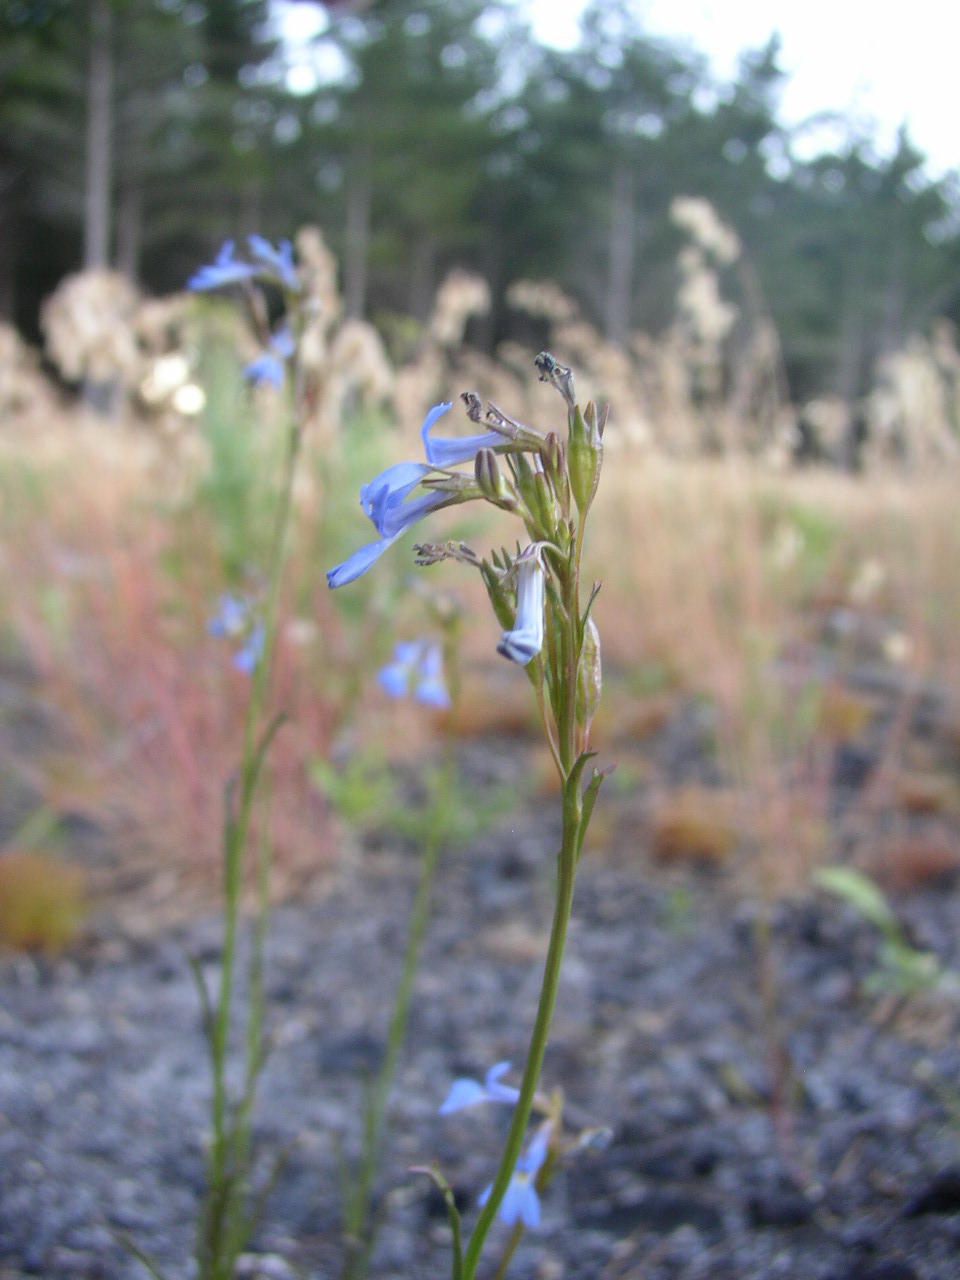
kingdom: Plantae
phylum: Tracheophyta
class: Magnoliopsida
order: Asterales
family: Campanulaceae
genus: Lobelia
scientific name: Lobelia comosa
